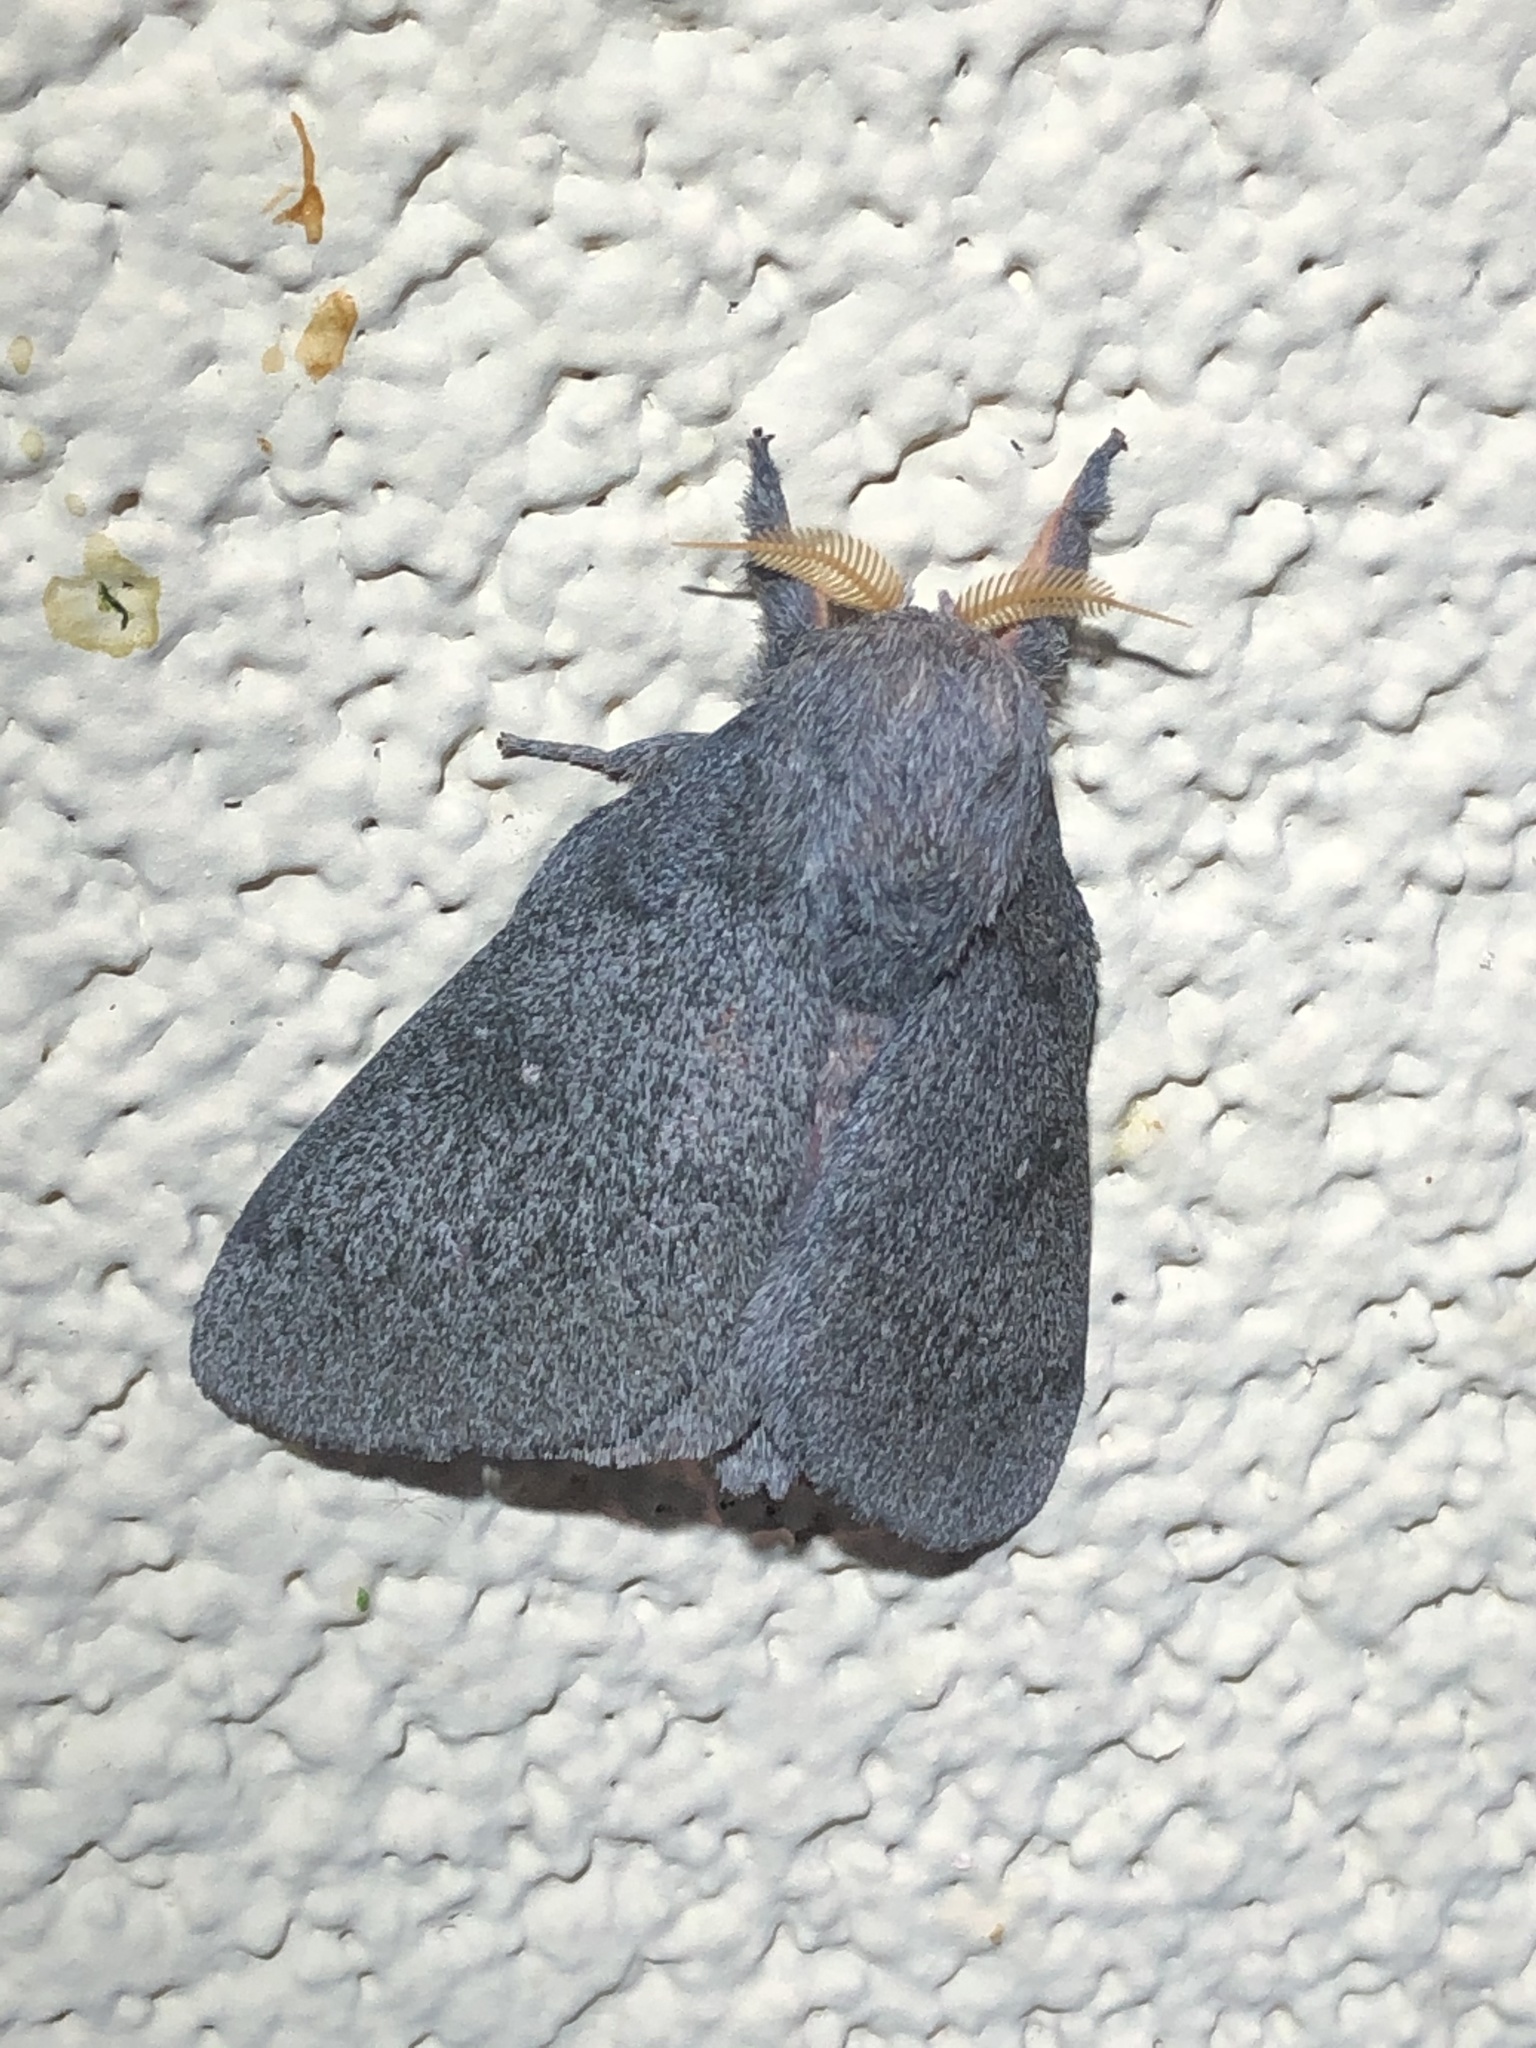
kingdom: Animalia
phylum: Arthropoda
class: Insecta
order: Lepidoptera
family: Saturniidae
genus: Syssphinx
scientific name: Syssphinx hubbardi
